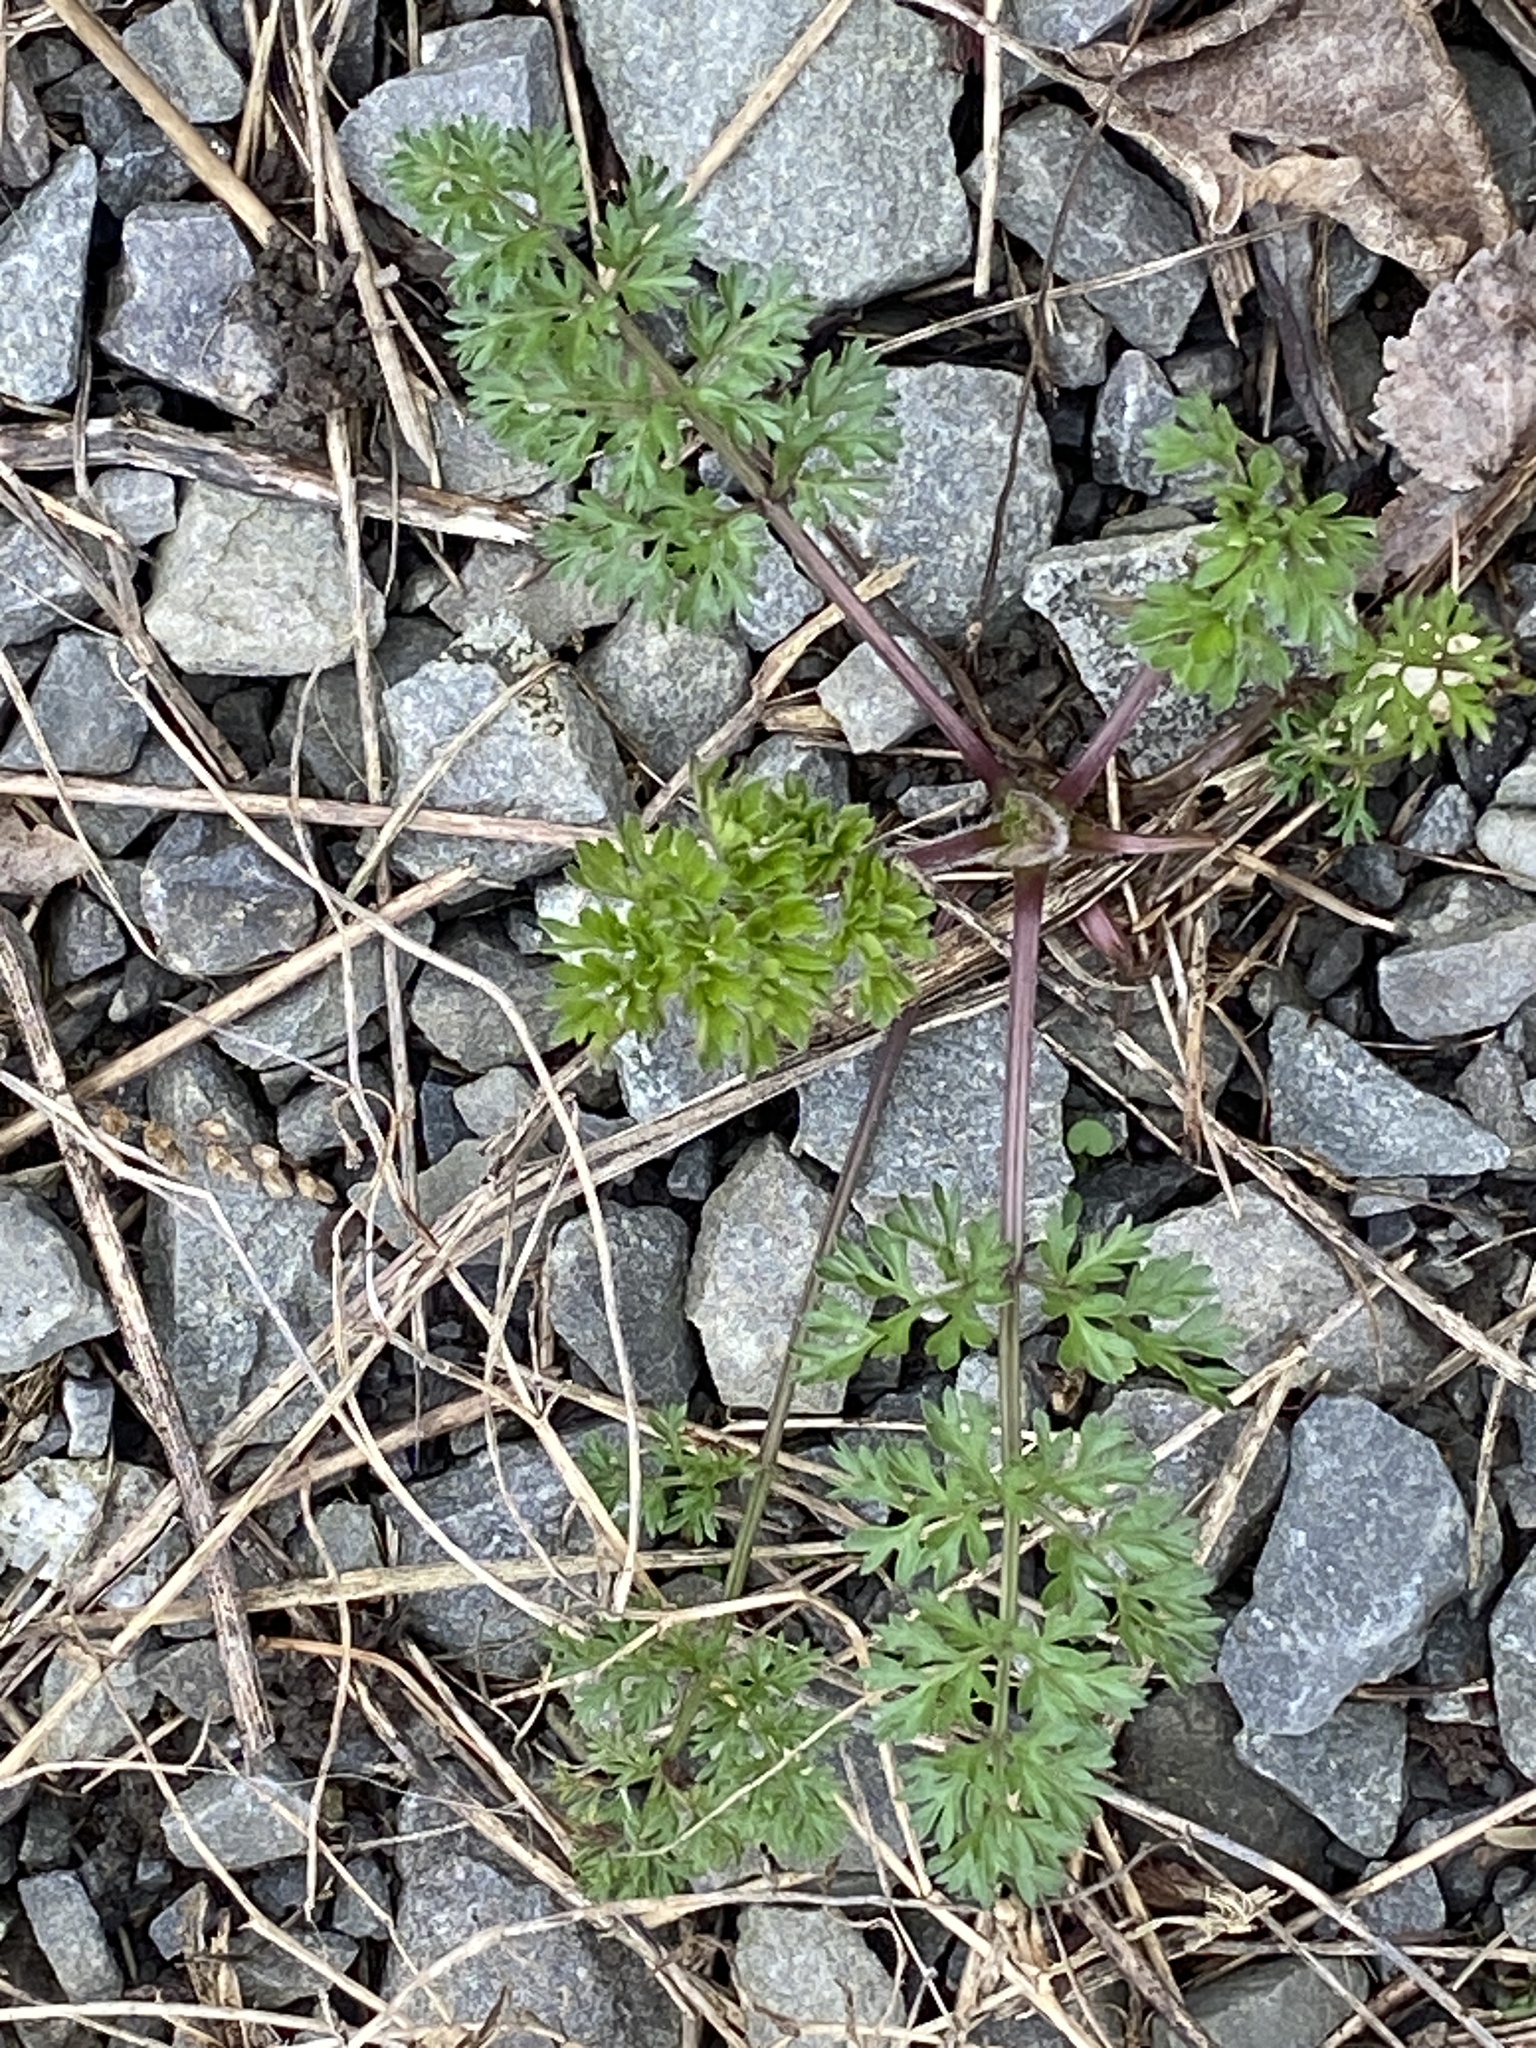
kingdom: Plantae
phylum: Tracheophyta
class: Magnoliopsida
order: Apiales
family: Apiaceae
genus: Daucus
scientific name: Daucus carota
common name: Wild carrot
